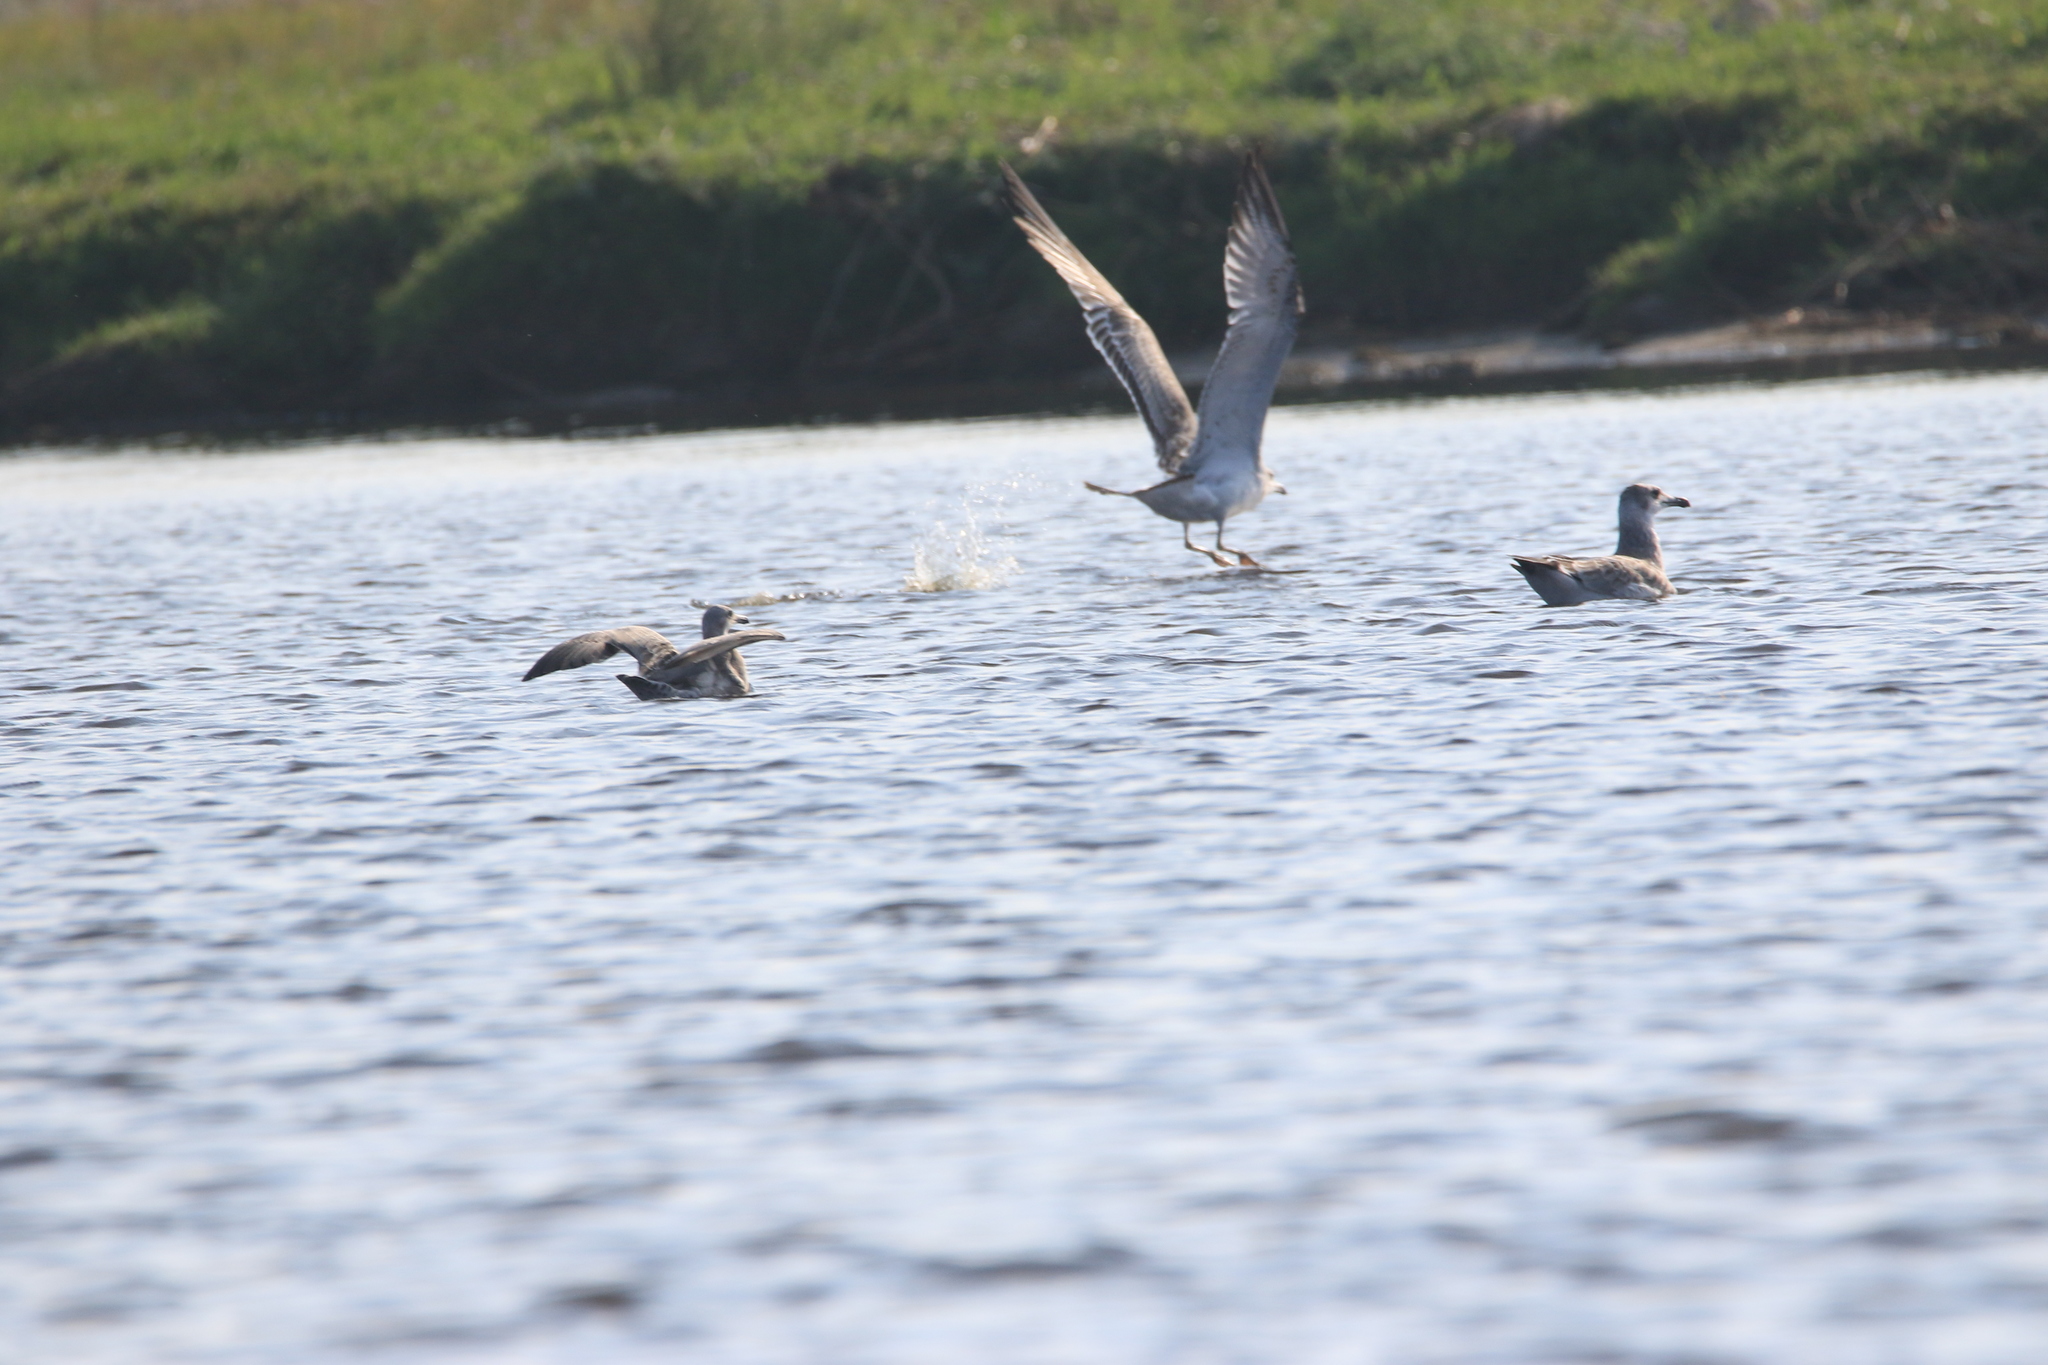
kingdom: Animalia
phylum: Chordata
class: Aves
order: Charadriiformes
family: Laridae
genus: Larus
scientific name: Larus fuscus
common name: Lesser black-backed gull
